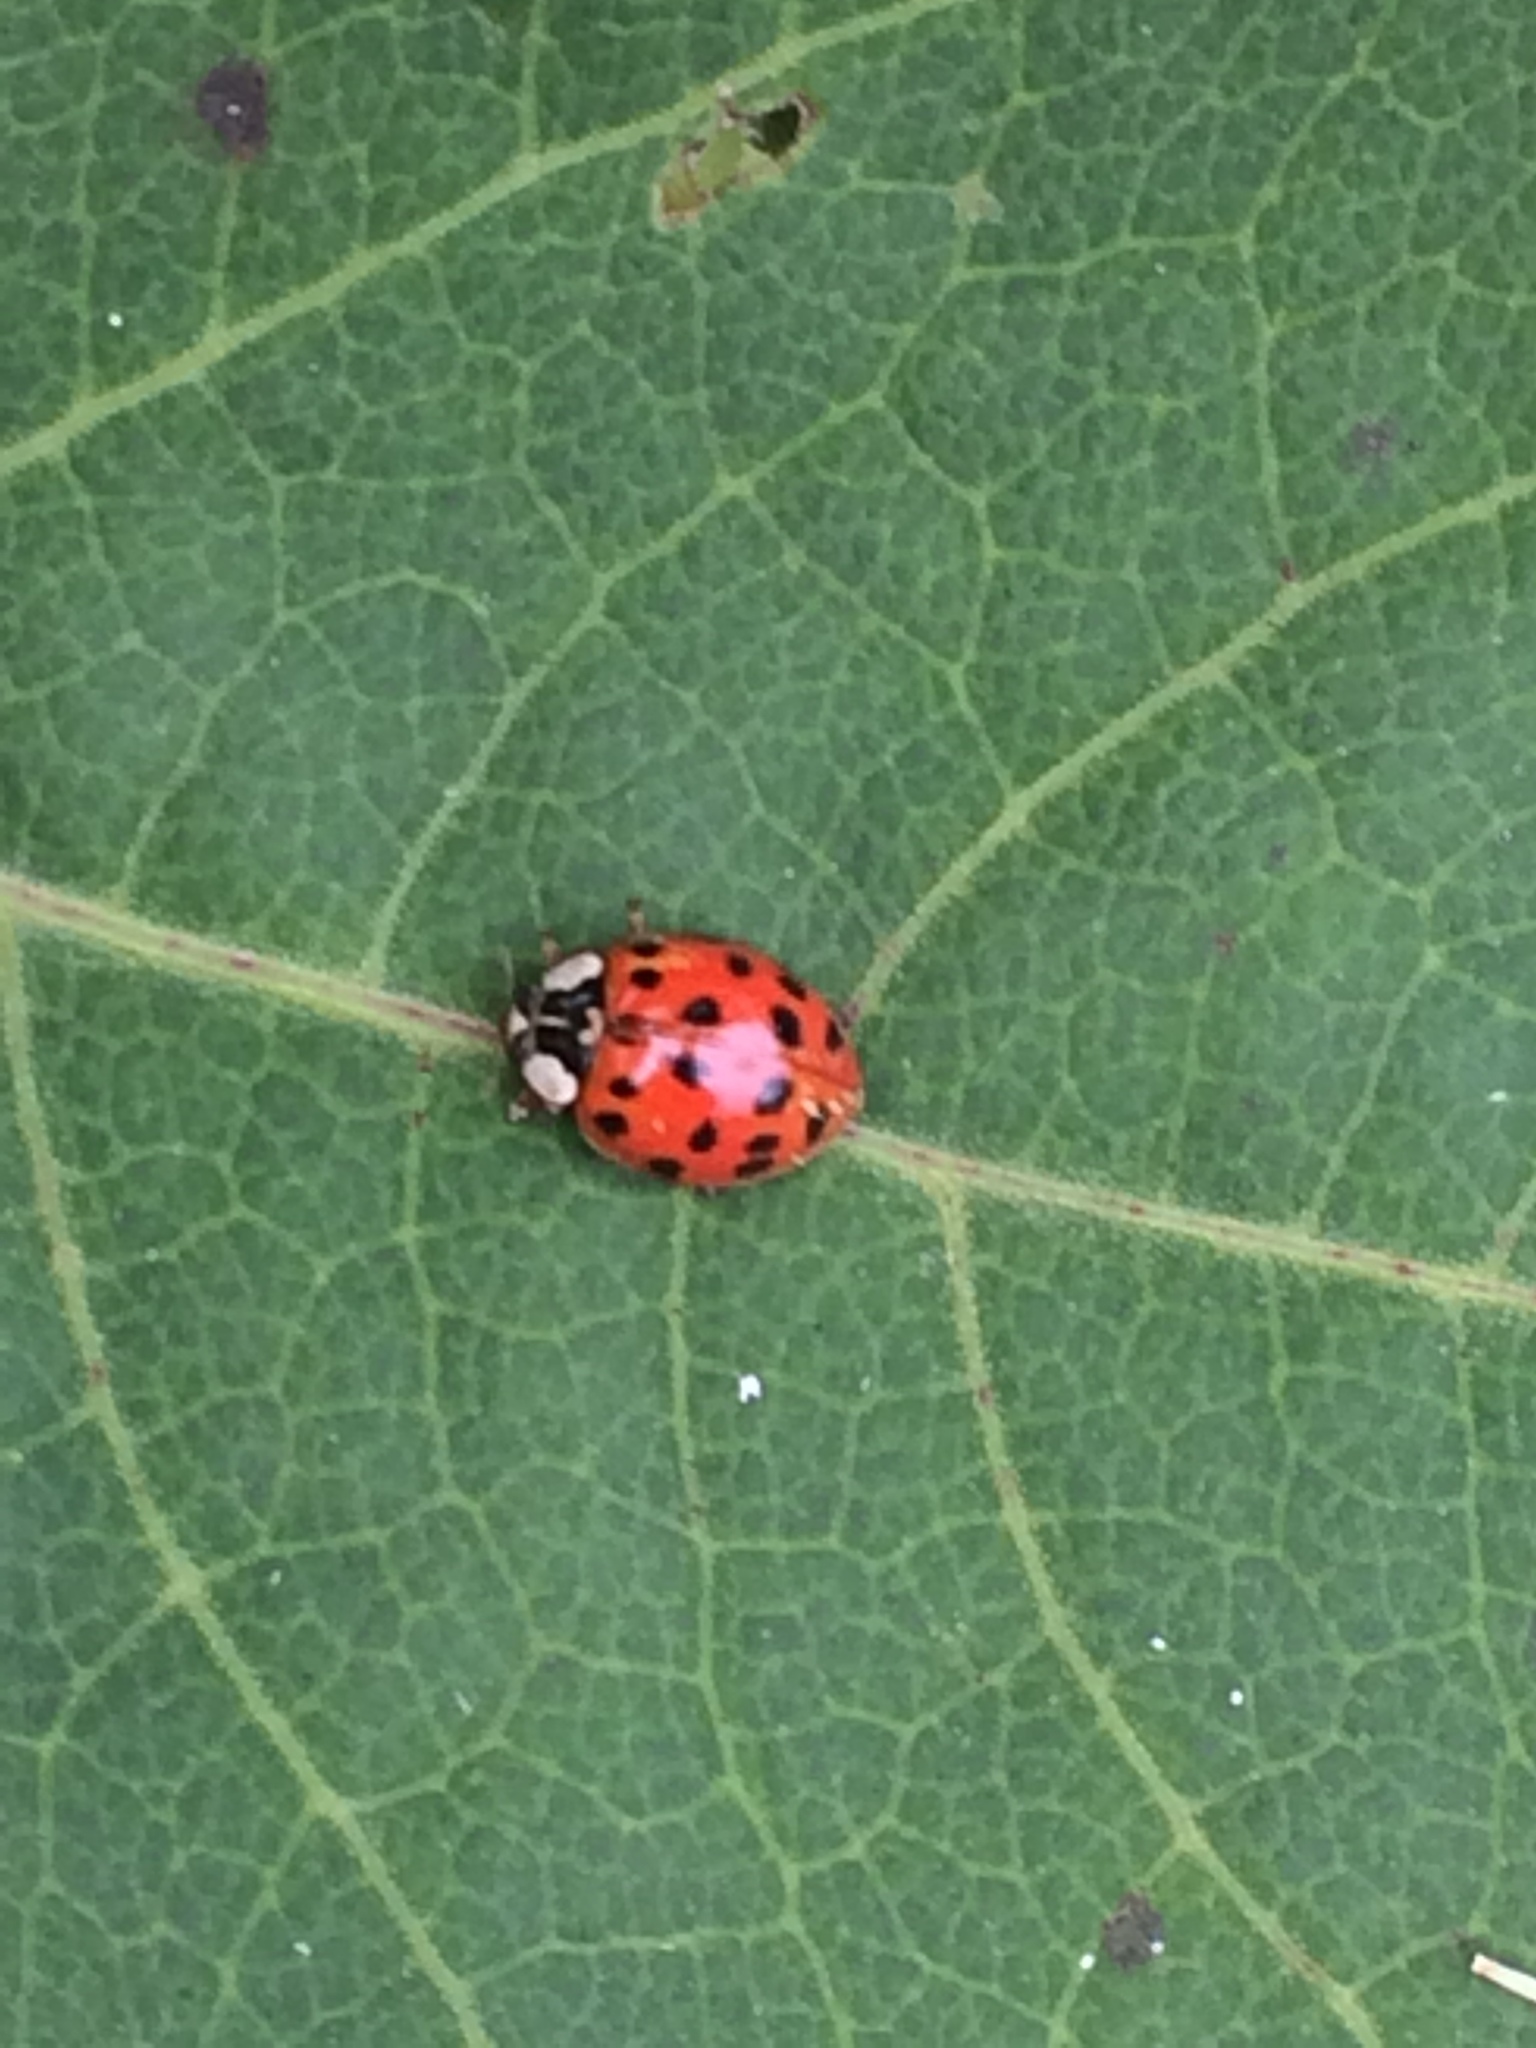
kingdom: Animalia
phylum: Arthropoda
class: Insecta
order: Coleoptera
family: Coccinellidae
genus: Harmonia
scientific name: Harmonia axyridis
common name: Harlequin ladybird
